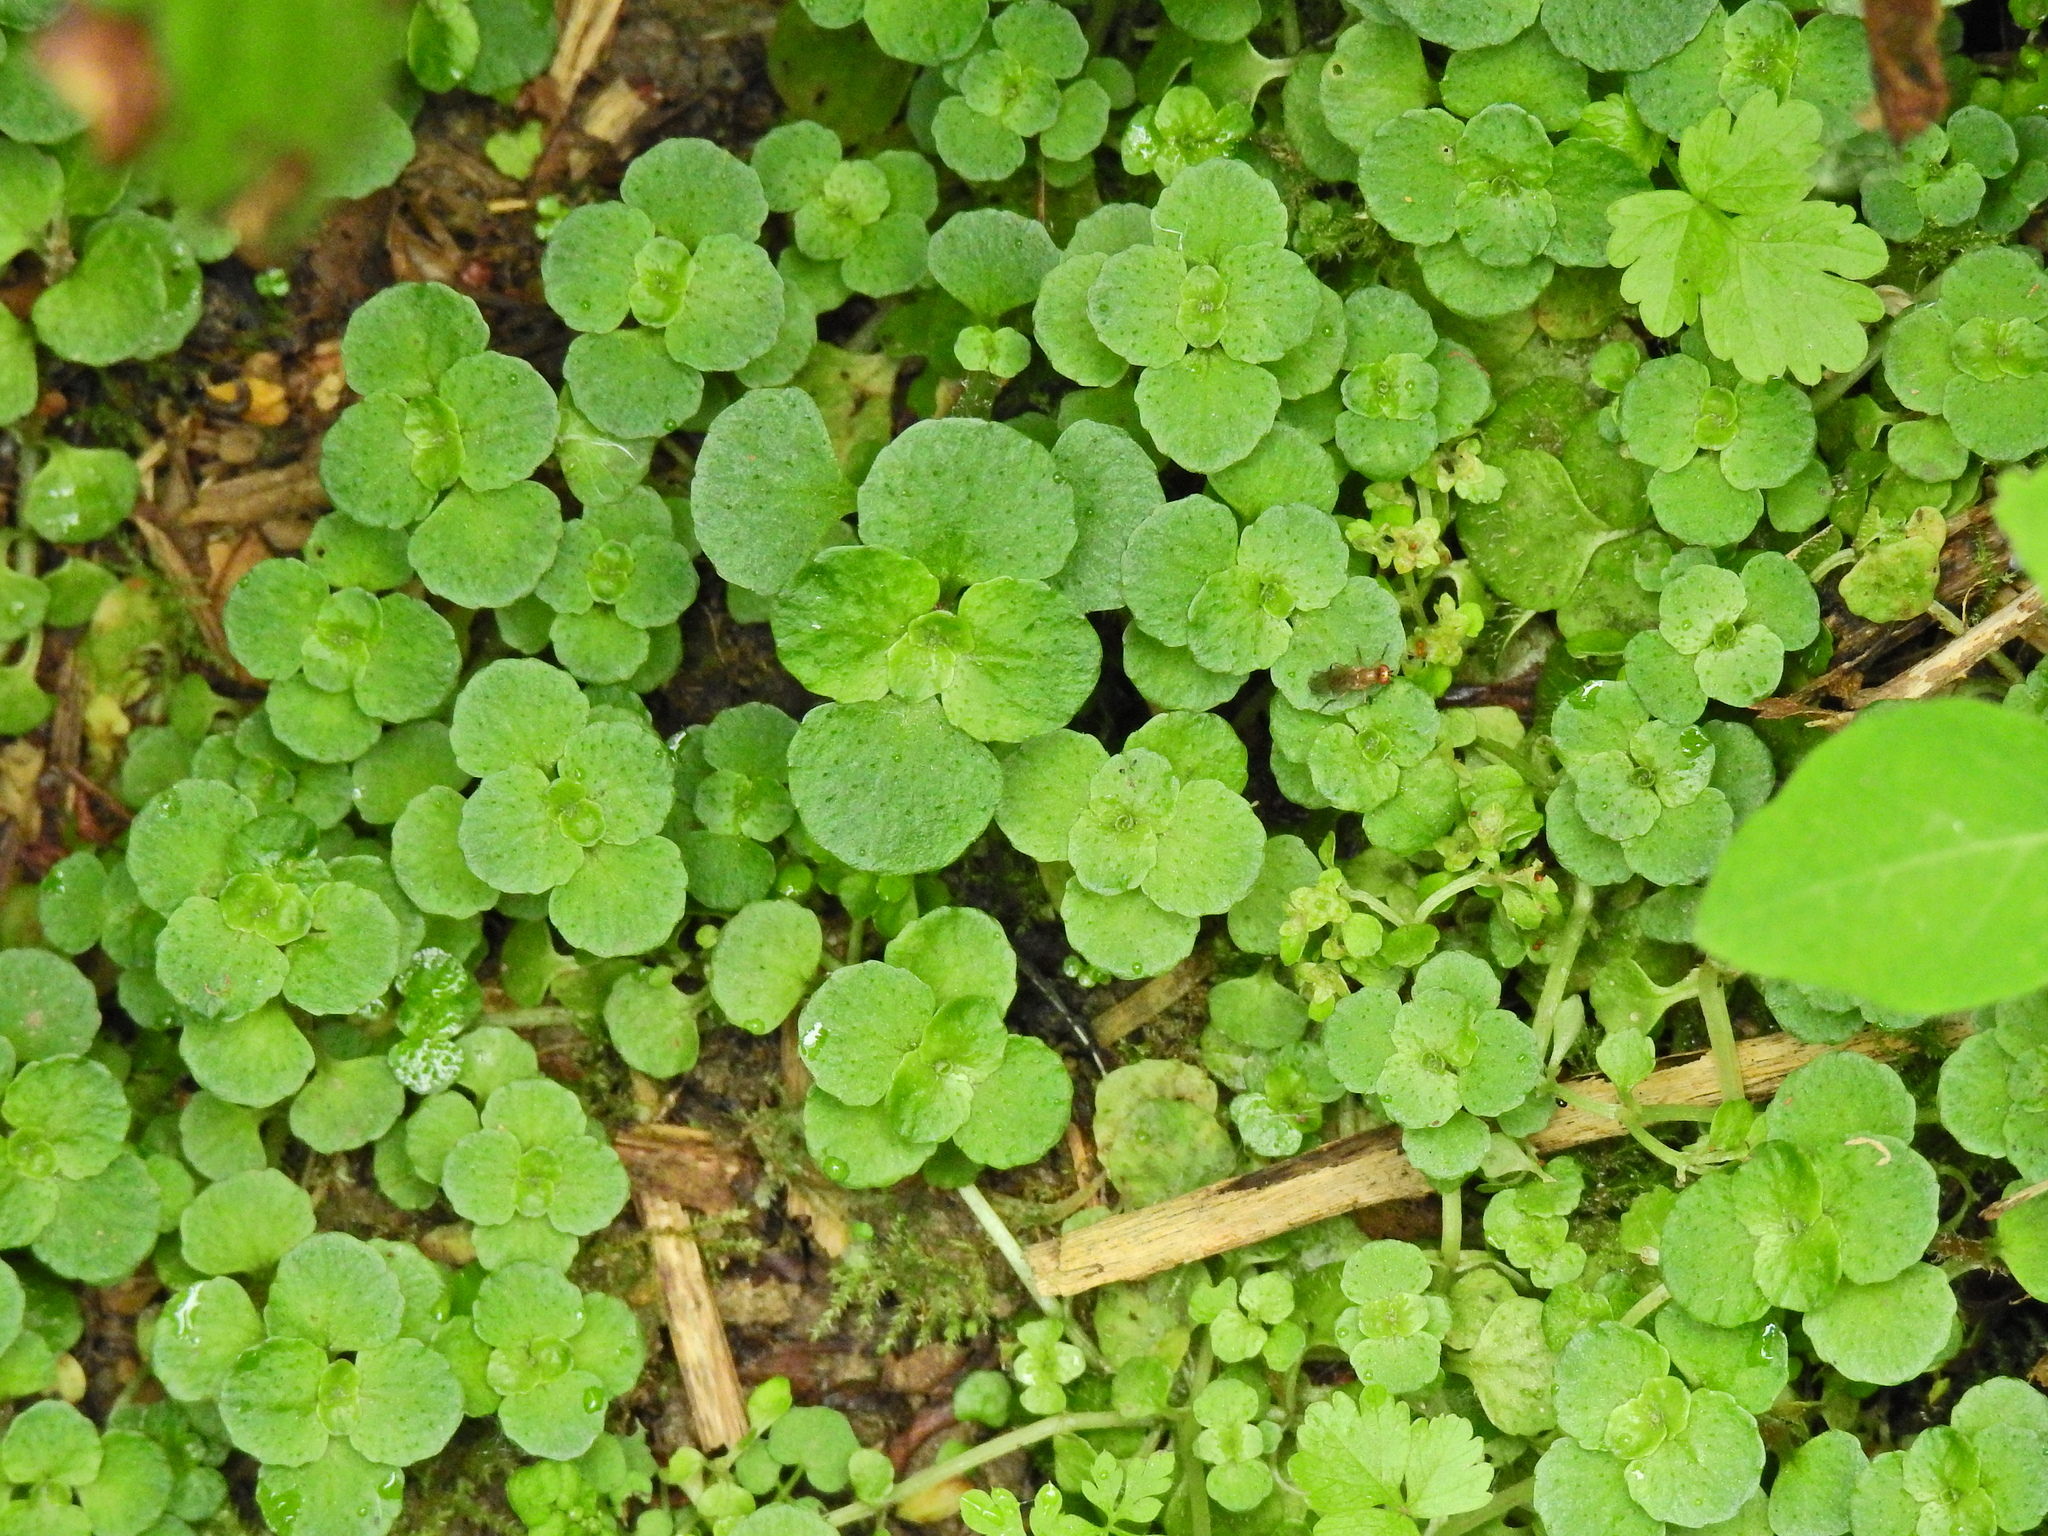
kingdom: Plantae
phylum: Tracheophyta
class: Magnoliopsida
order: Saxifragales
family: Saxifragaceae
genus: Chrysosplenium
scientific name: Chrysosplenium oppositifolium
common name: Opposite-leaved golden-saxifrage
